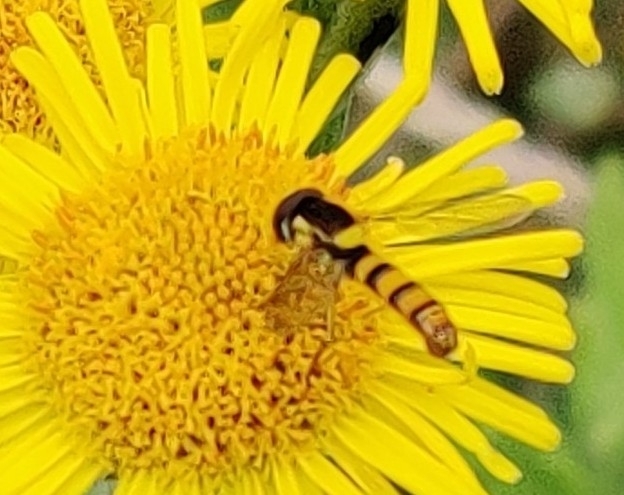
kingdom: Animalia
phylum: Arthropoda
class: Insecta
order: Diptera
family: Syrphidae
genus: Sphaerophoria
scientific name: Sphaerophoria scripta
